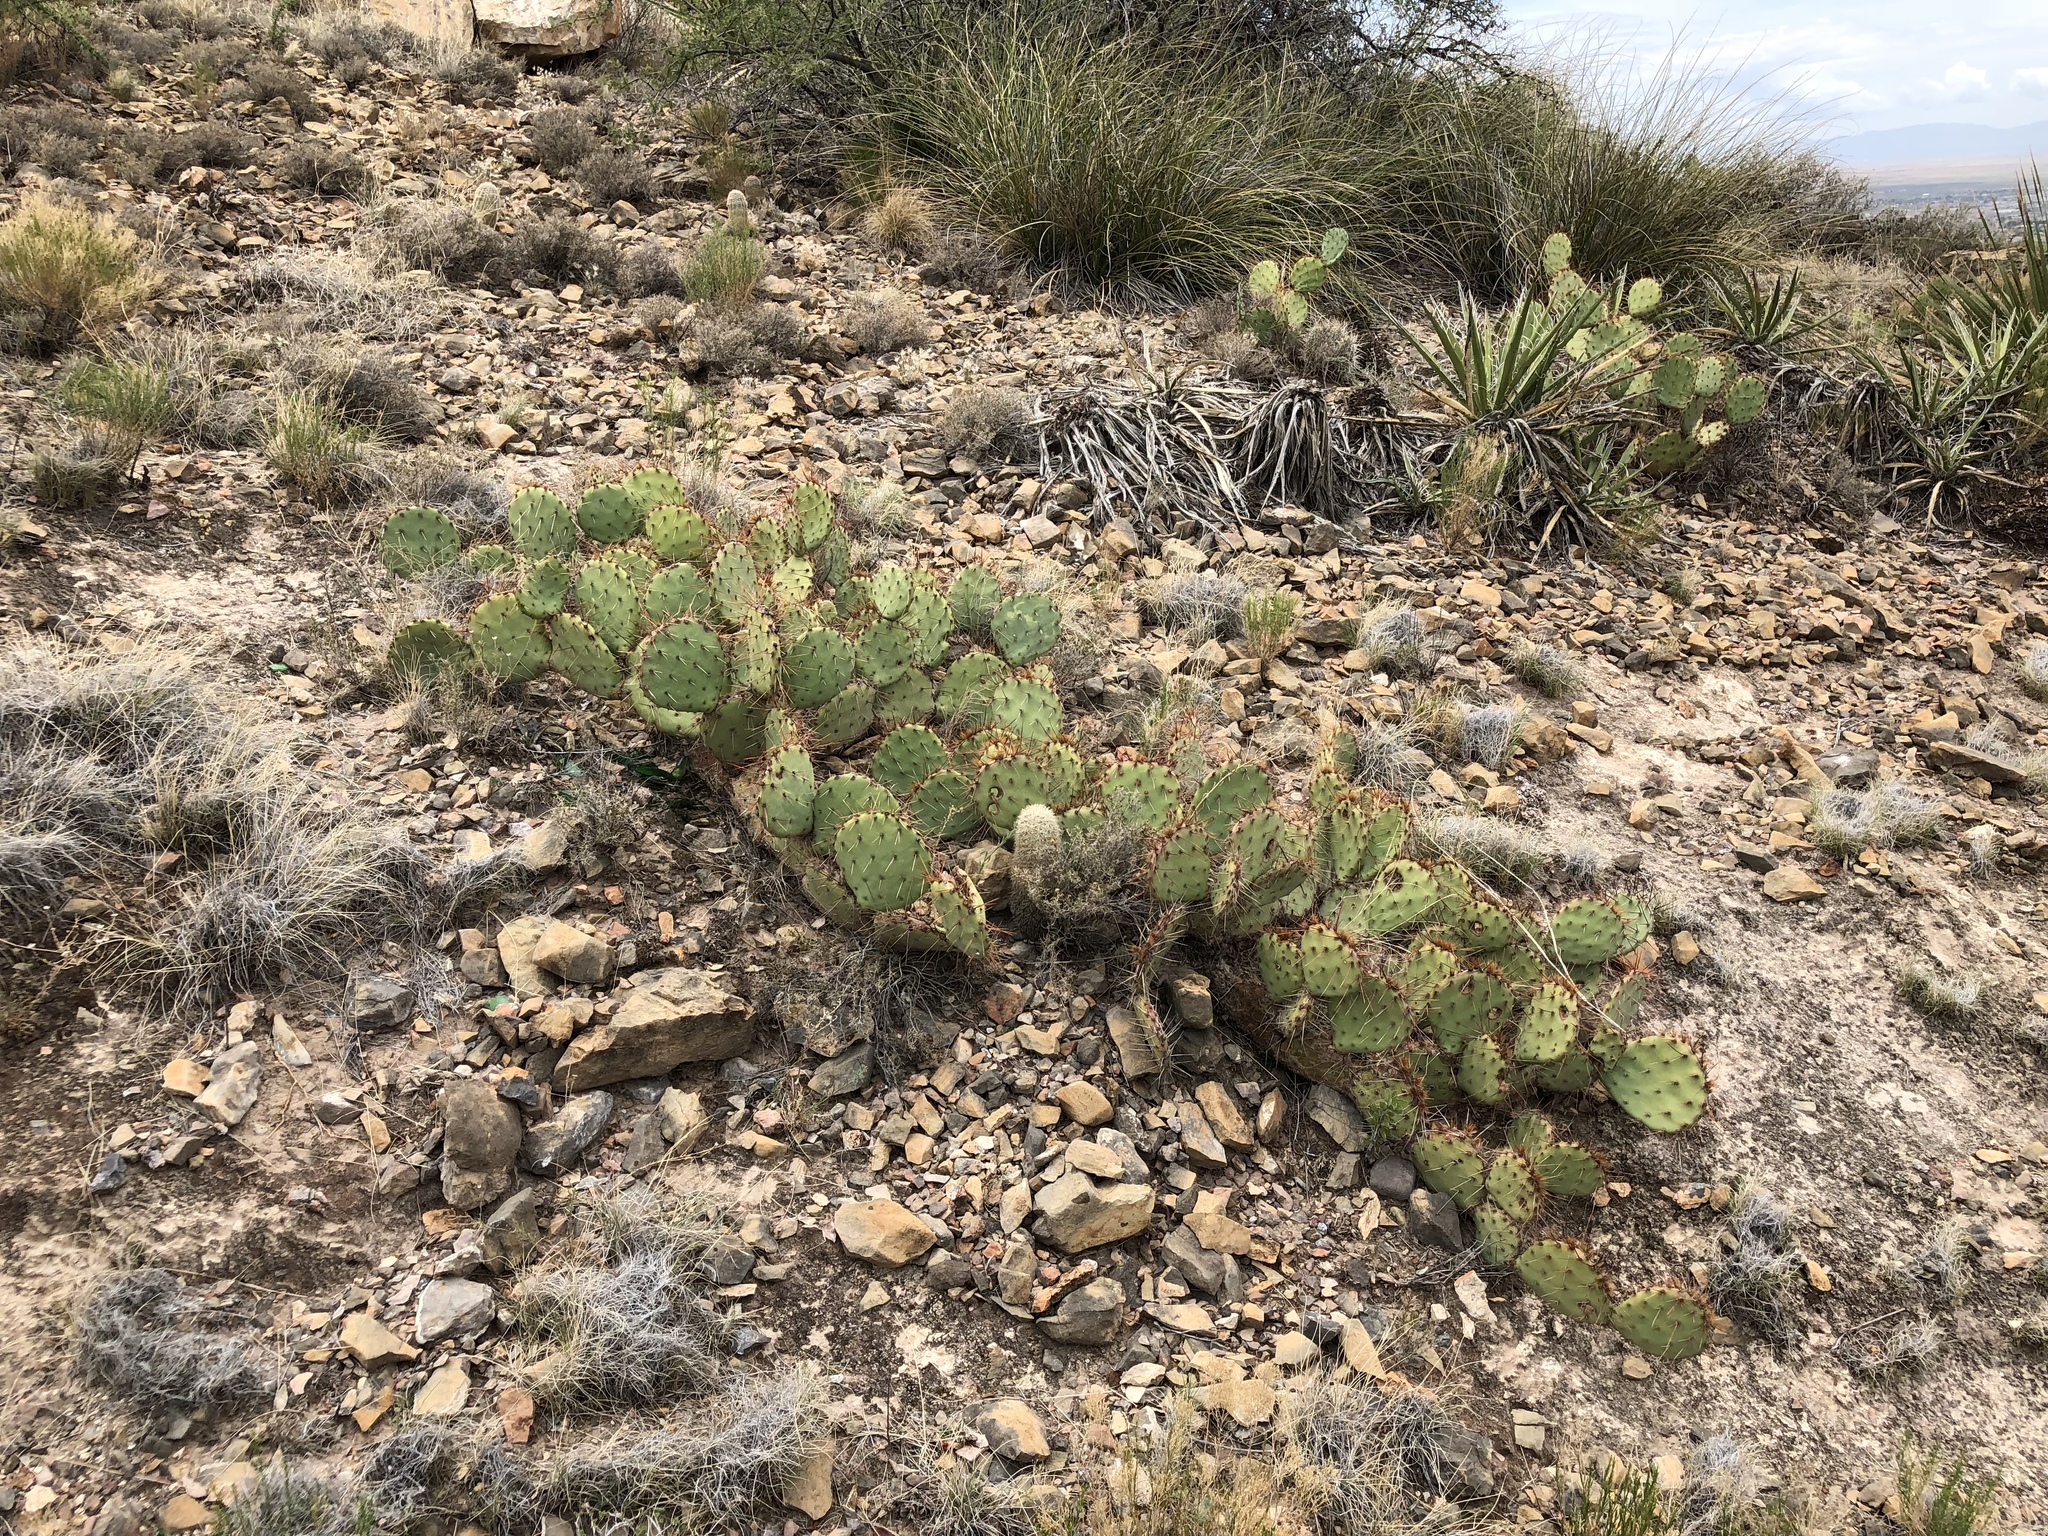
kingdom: Plantae
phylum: Tracheophyta
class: Magnoliopsida
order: Caryophyllales
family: Cactaceae
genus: Opuntia
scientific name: Opuntia phaeacantha
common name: New mexico prickly-pear
